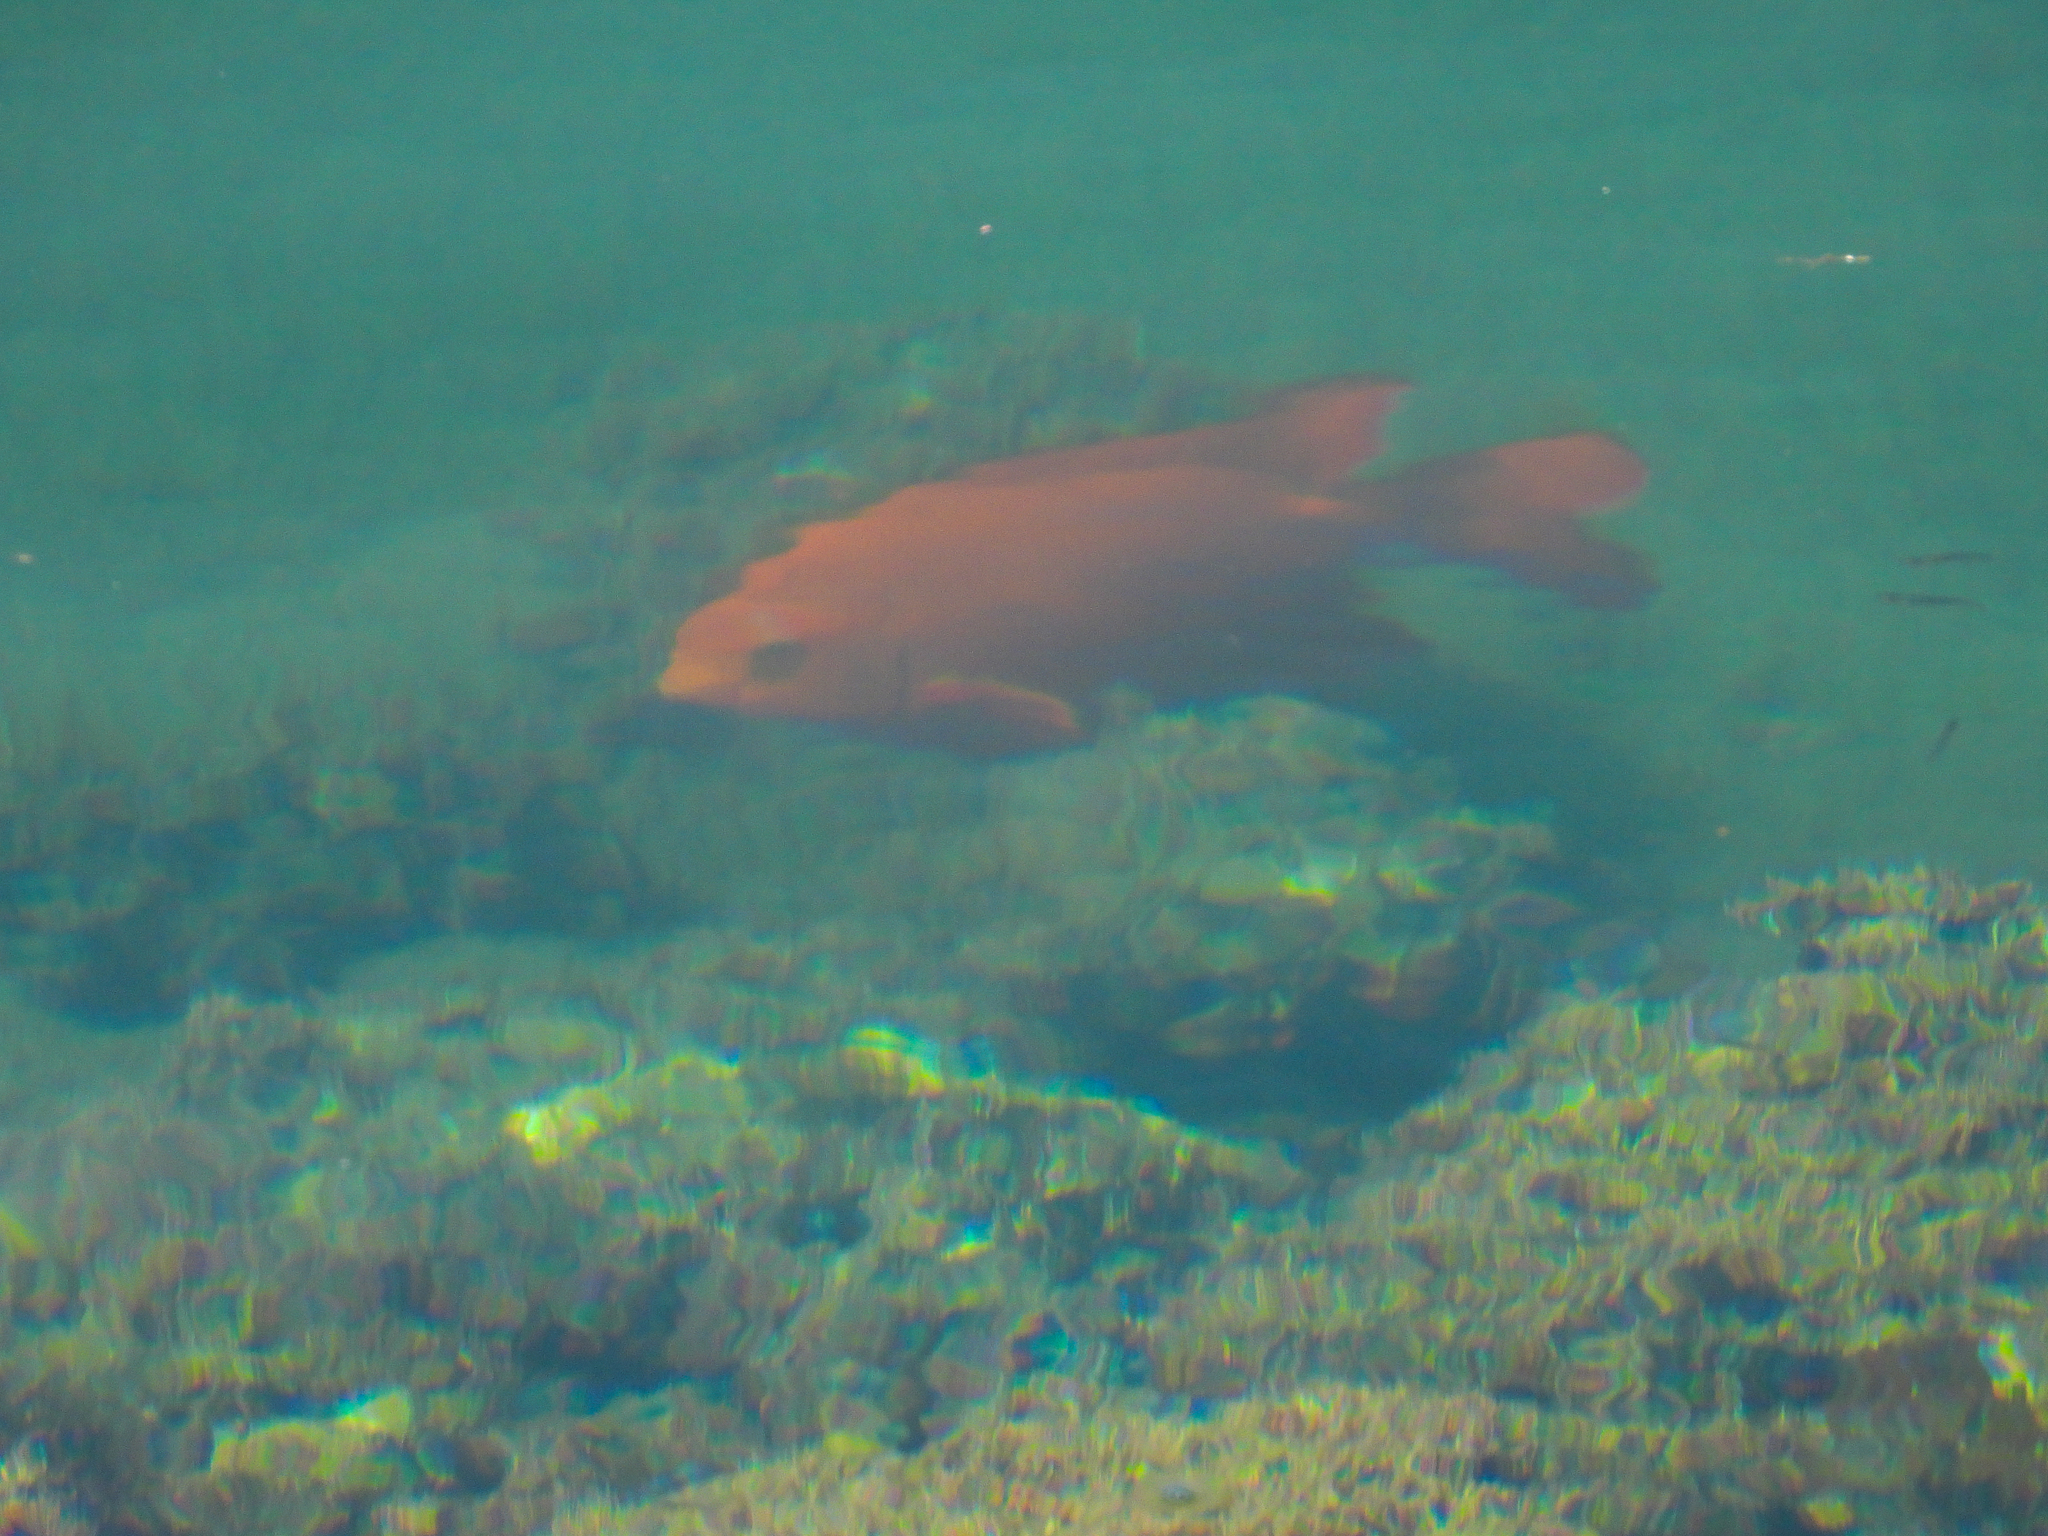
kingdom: Animalia
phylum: Chordata
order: Perciformes
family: Pomacentridae
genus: Hypsypops
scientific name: Hypsypops rubicundus
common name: Garibaldi
